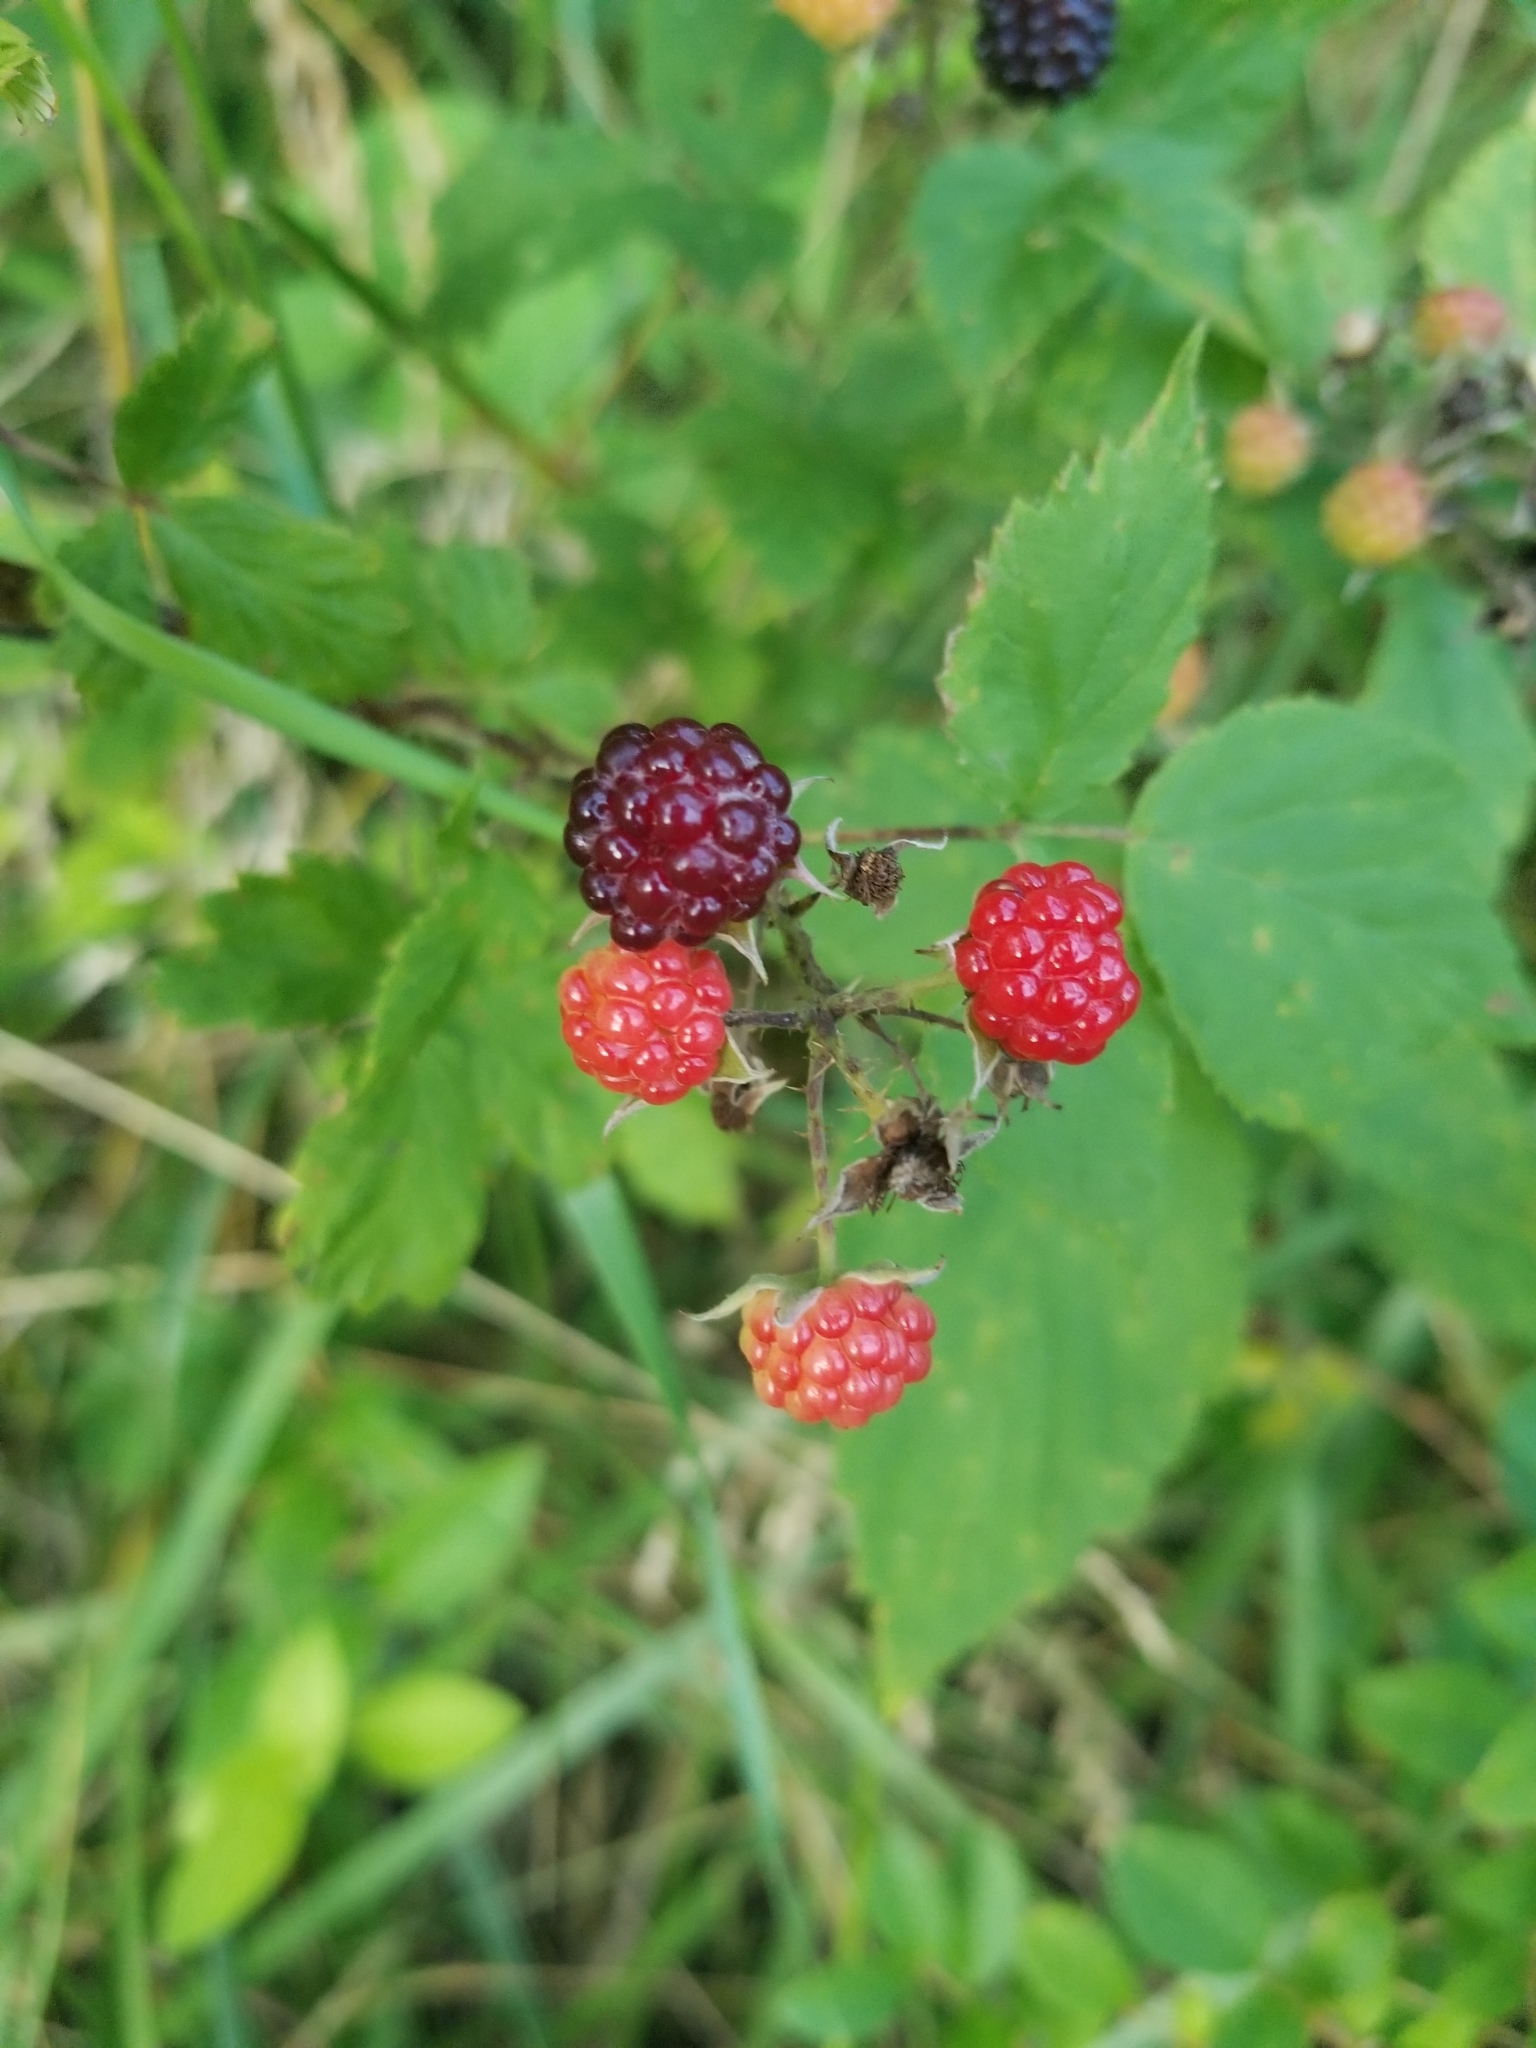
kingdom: Plantae
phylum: Tracheophyta
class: Magnoliopsida
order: Rosales
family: Rosaceae
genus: Rubus
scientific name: Rubus occidentalis
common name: Black raspberry
